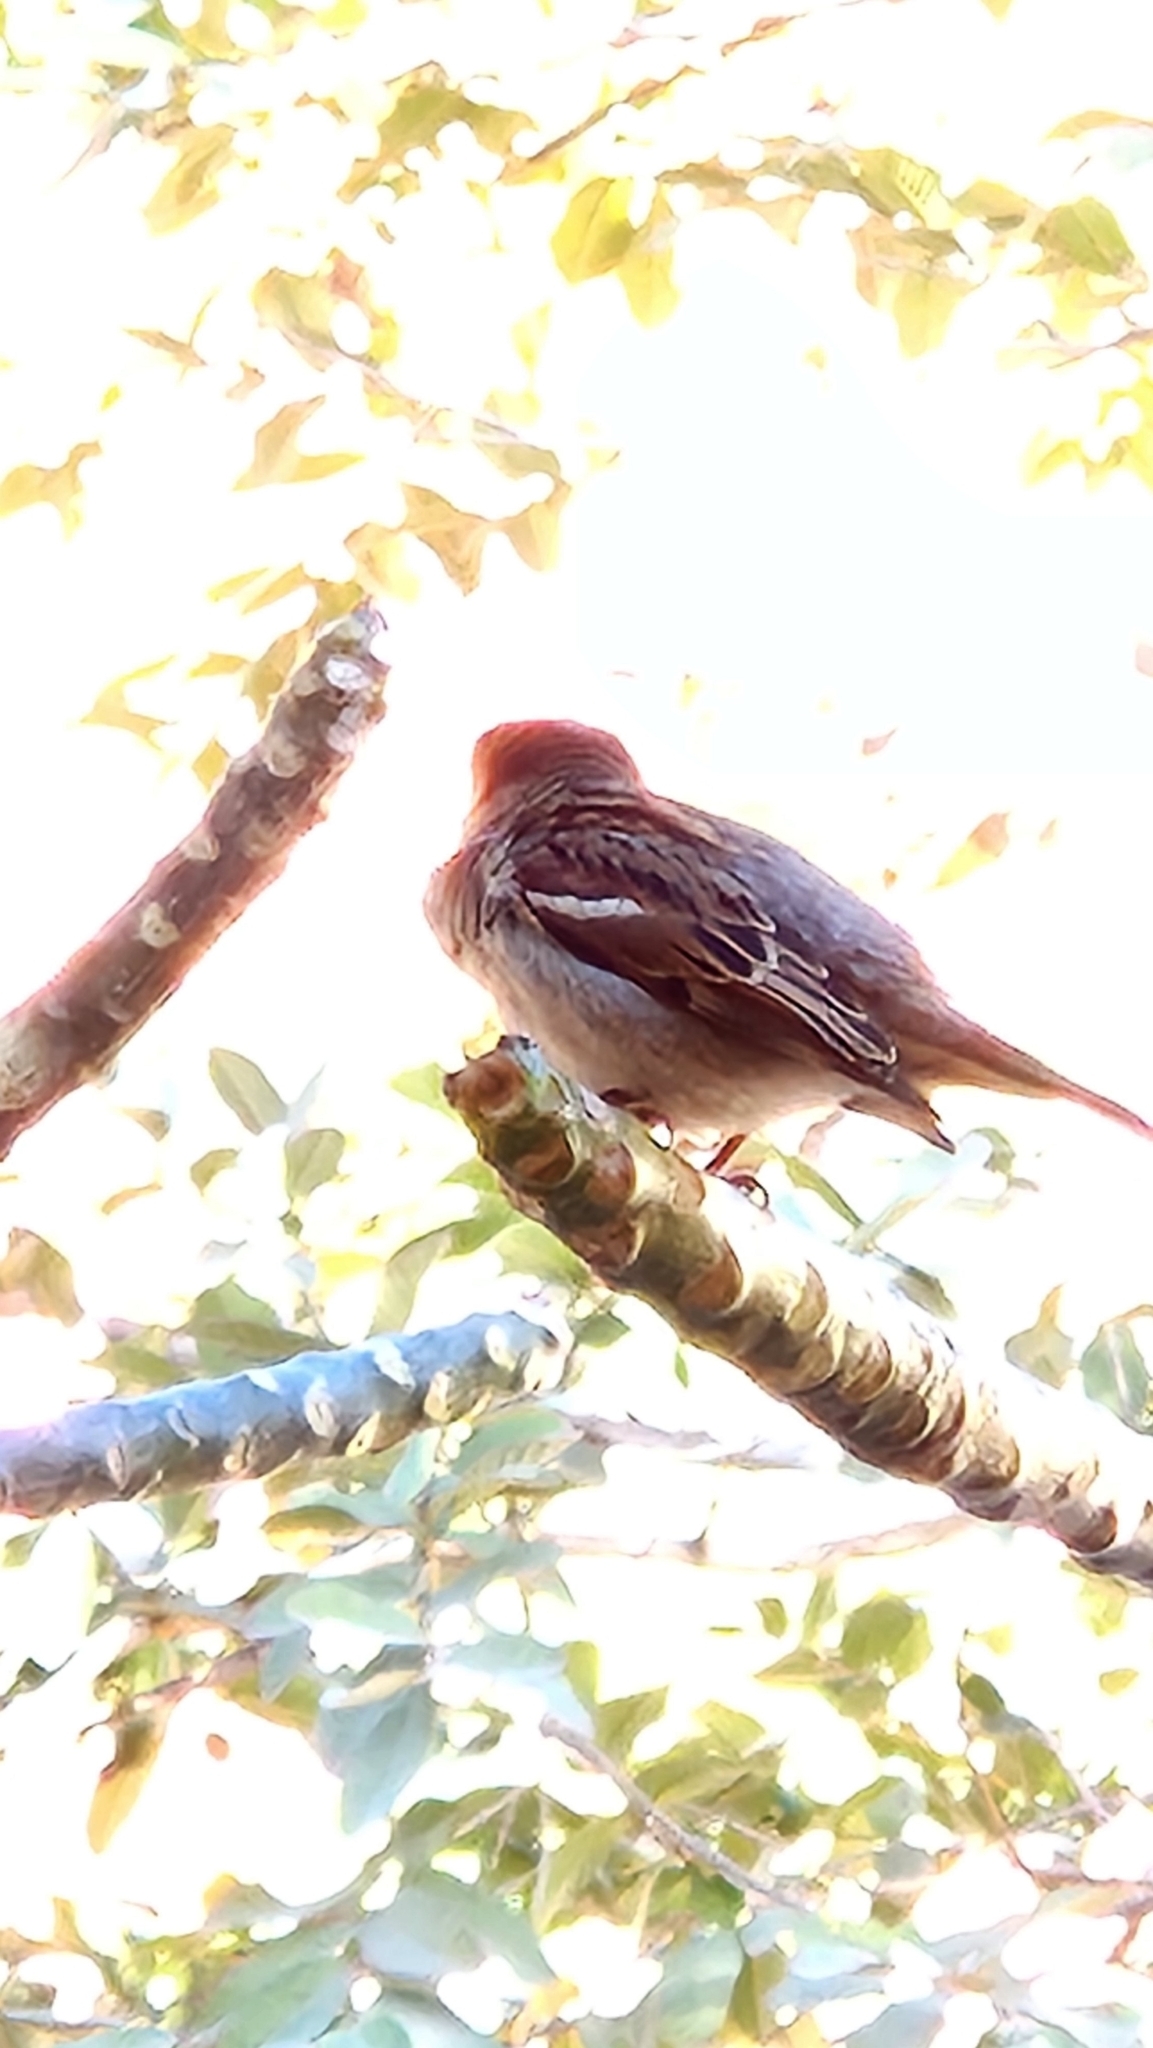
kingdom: Animalia
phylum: Chordata
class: Aves
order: Passeriformes
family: Passeridae
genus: Passer
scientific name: Passer domesticus
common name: House sparrow
